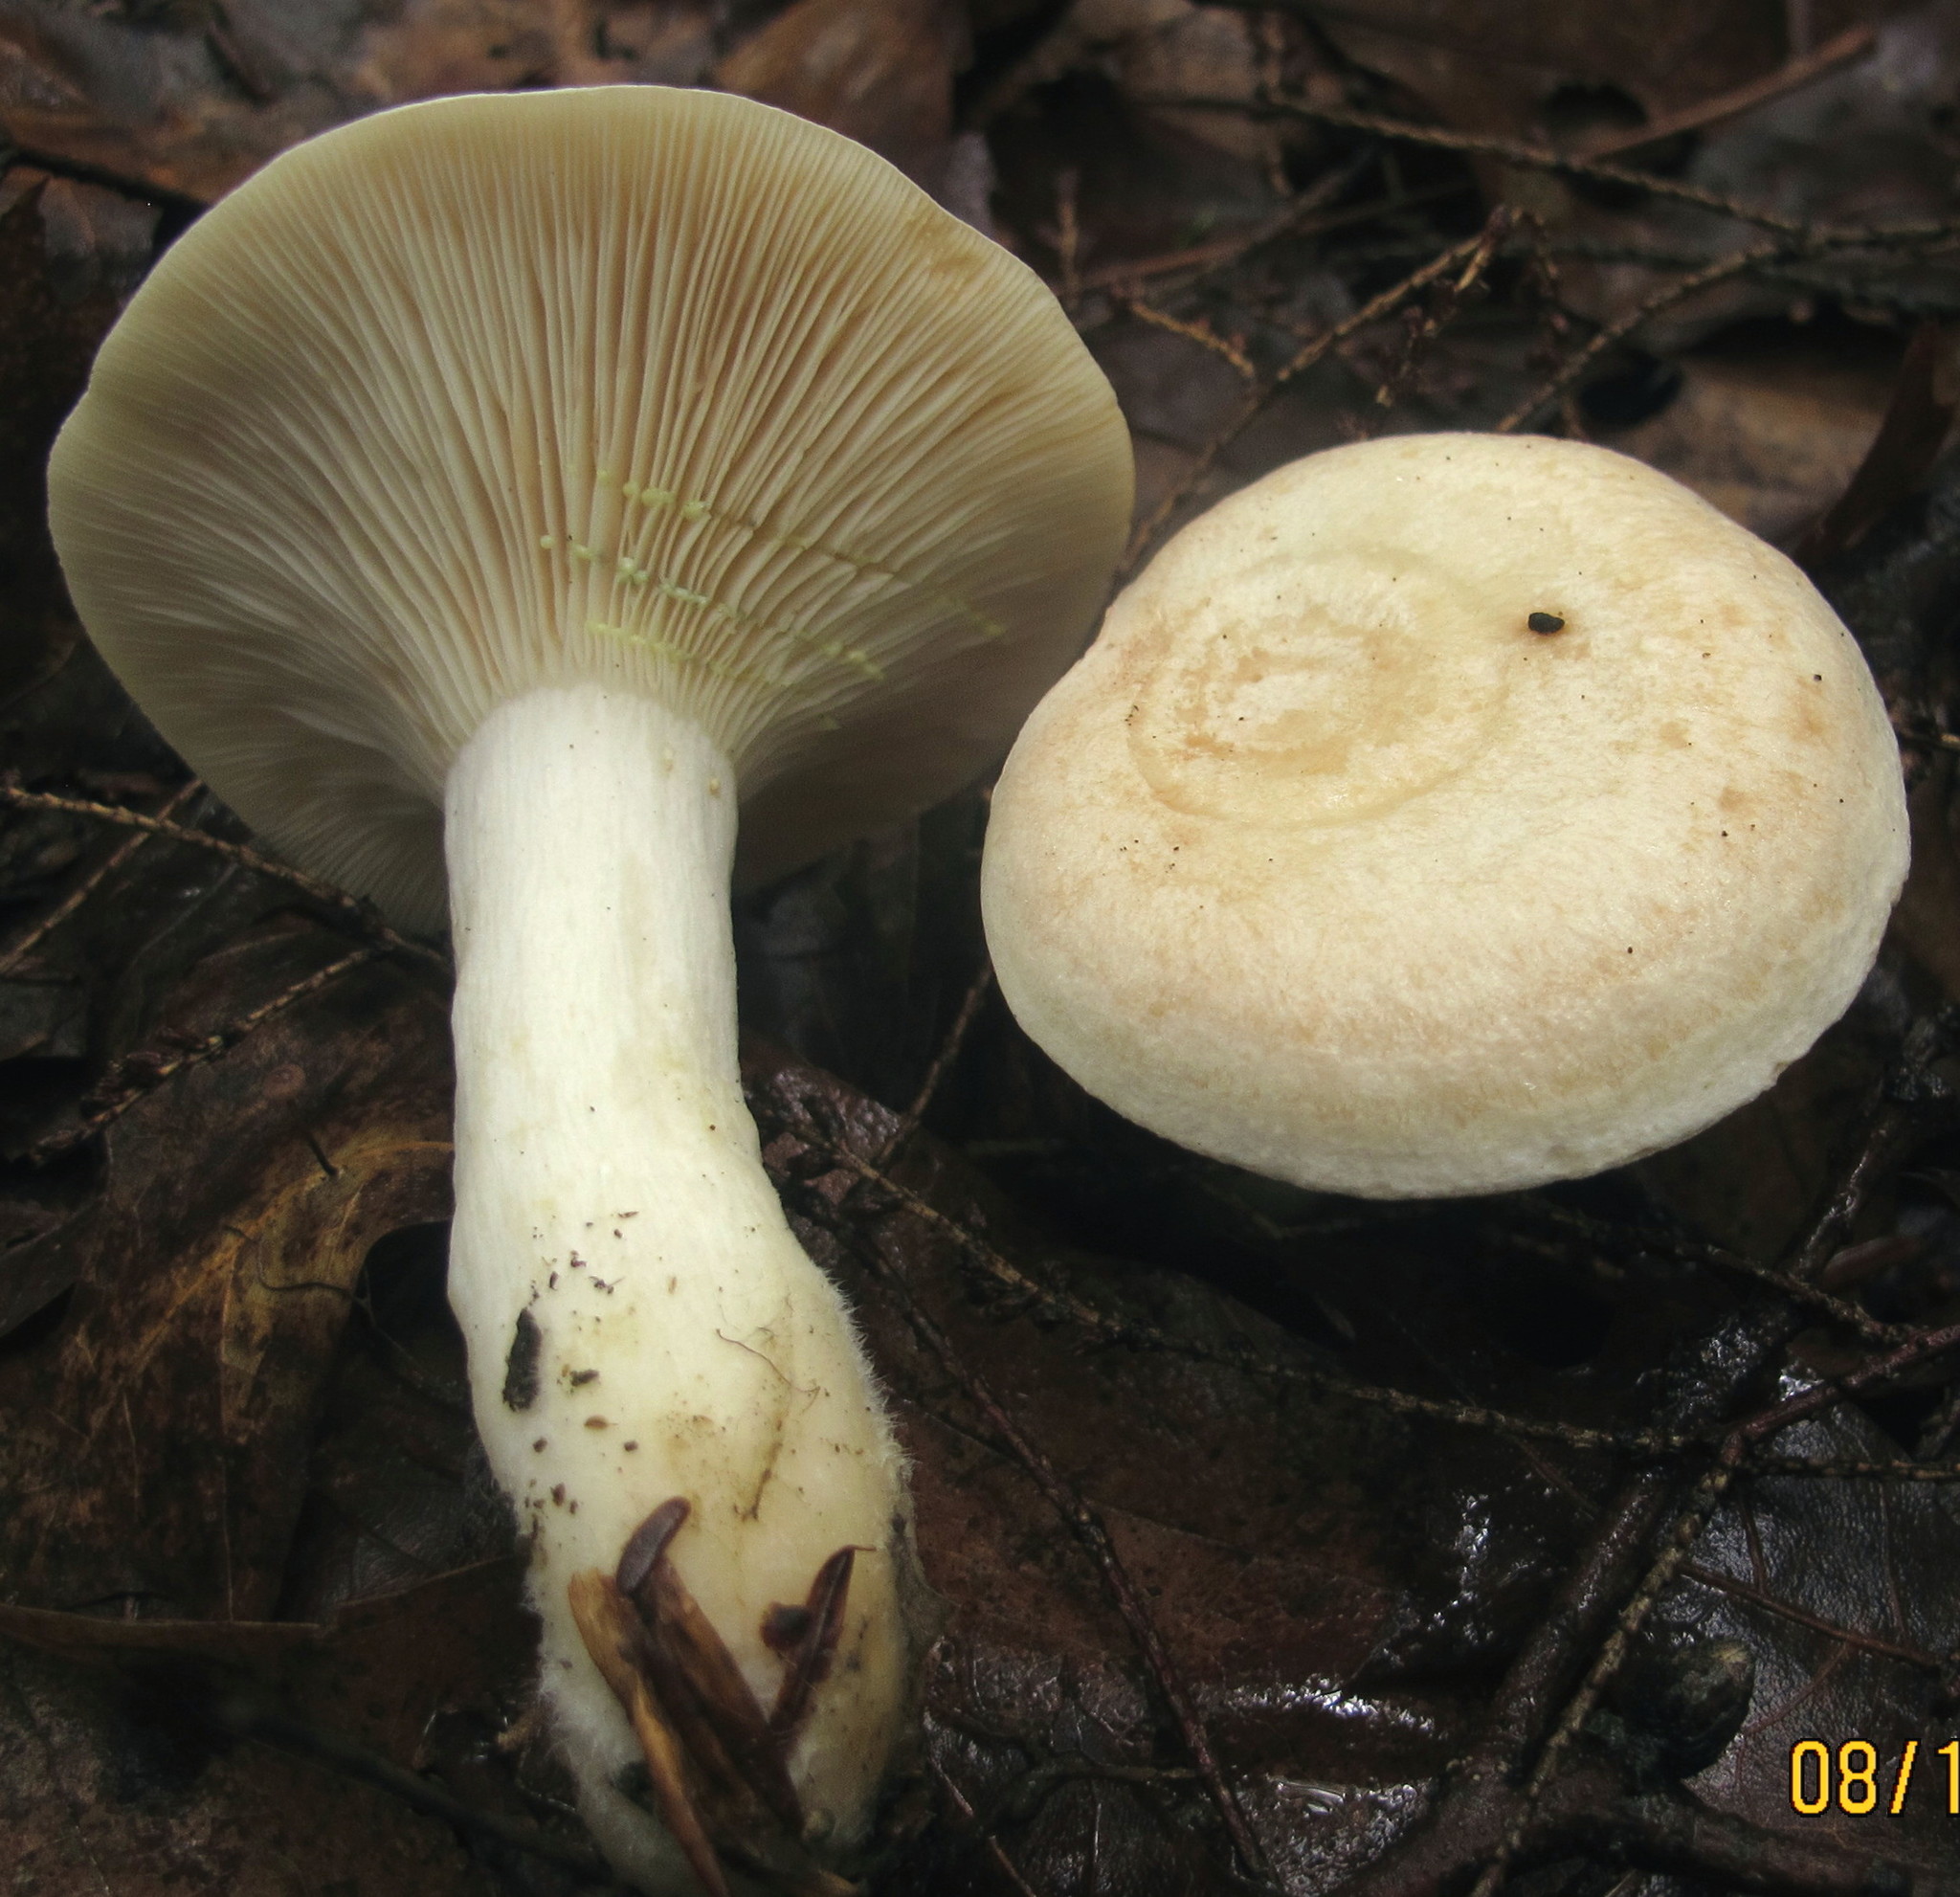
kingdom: Fungi
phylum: Basidiomycota
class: Agaricomycetes
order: Russulales
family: Russulaceae
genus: Lactarius
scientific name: Lactarius chrysorrheus
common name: Yellowdrop milkcap
